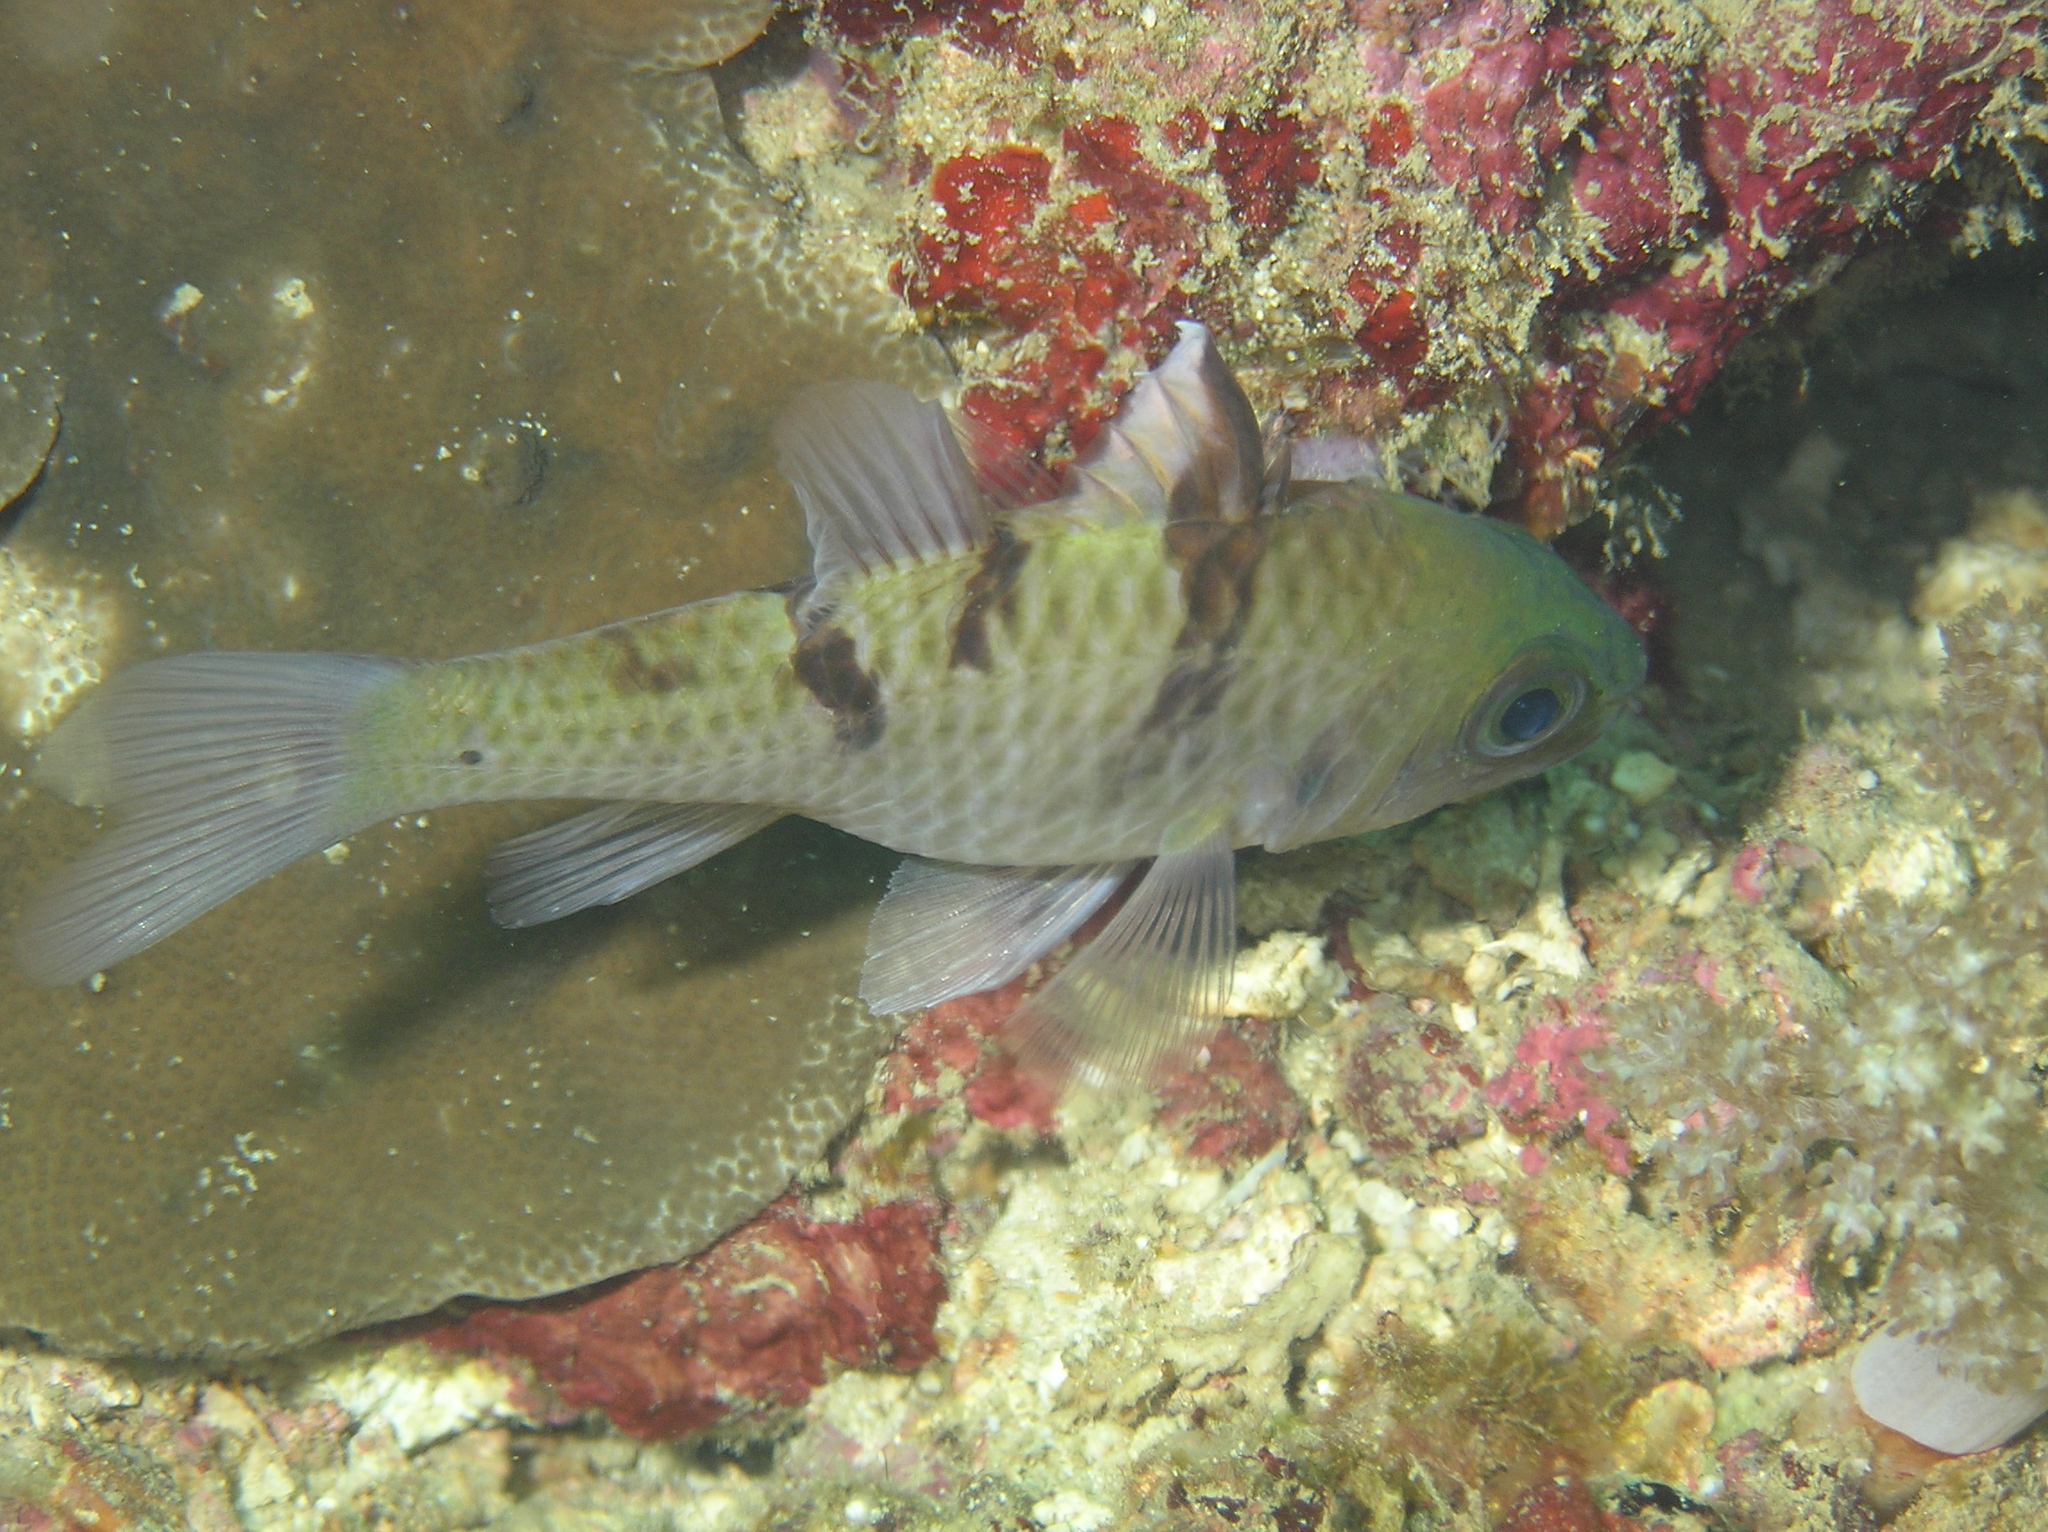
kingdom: Animalia
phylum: Chordata
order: Perciformes
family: Apogonidae
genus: Pristicon
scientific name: Pristicon trimaculatus
